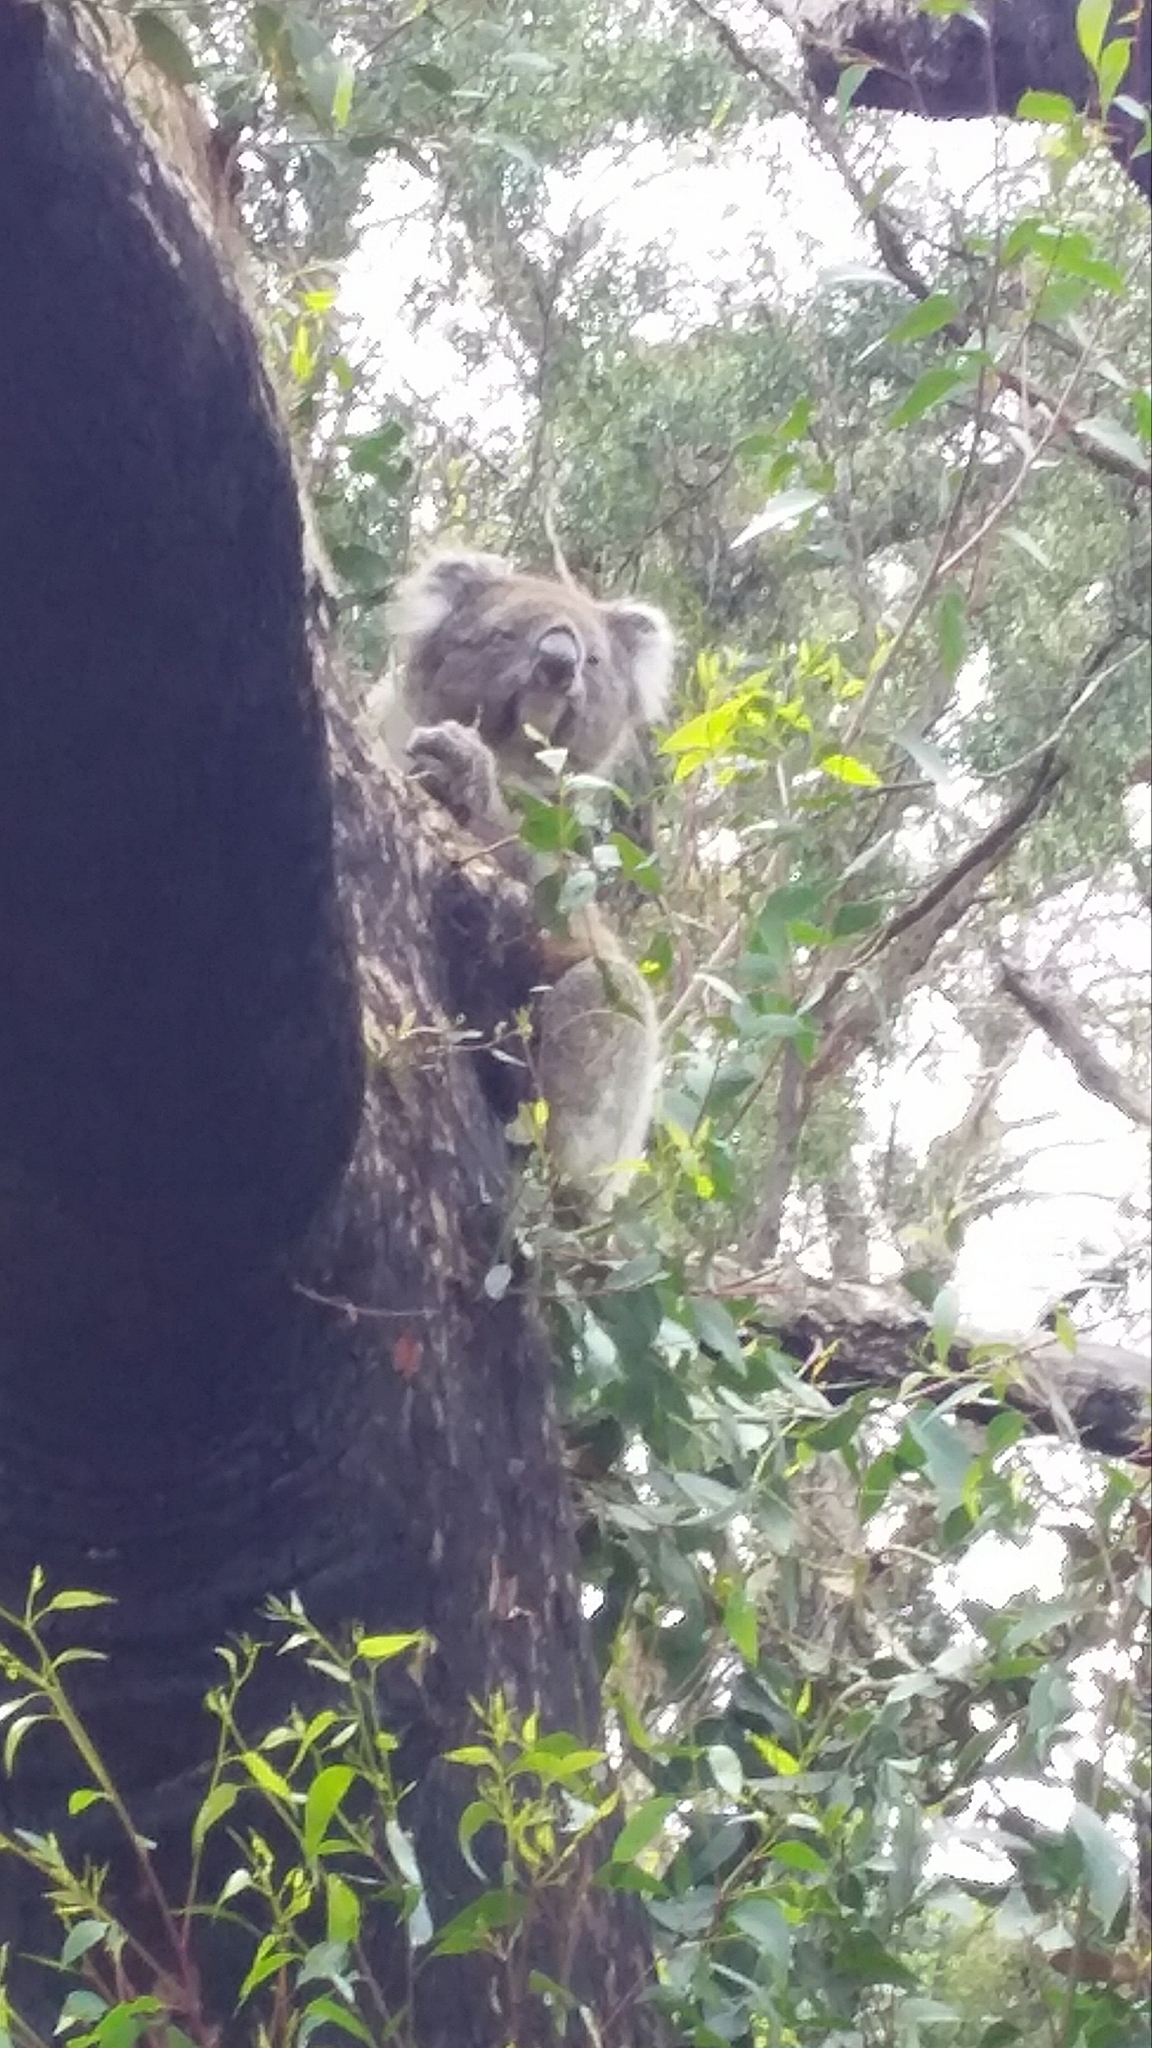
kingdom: Animalia
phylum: Chordata
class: Mammalia
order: Diprotodontia
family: Phascolarctidae
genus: Phascolarctos
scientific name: Phascolarctos cinereus
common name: Koala
